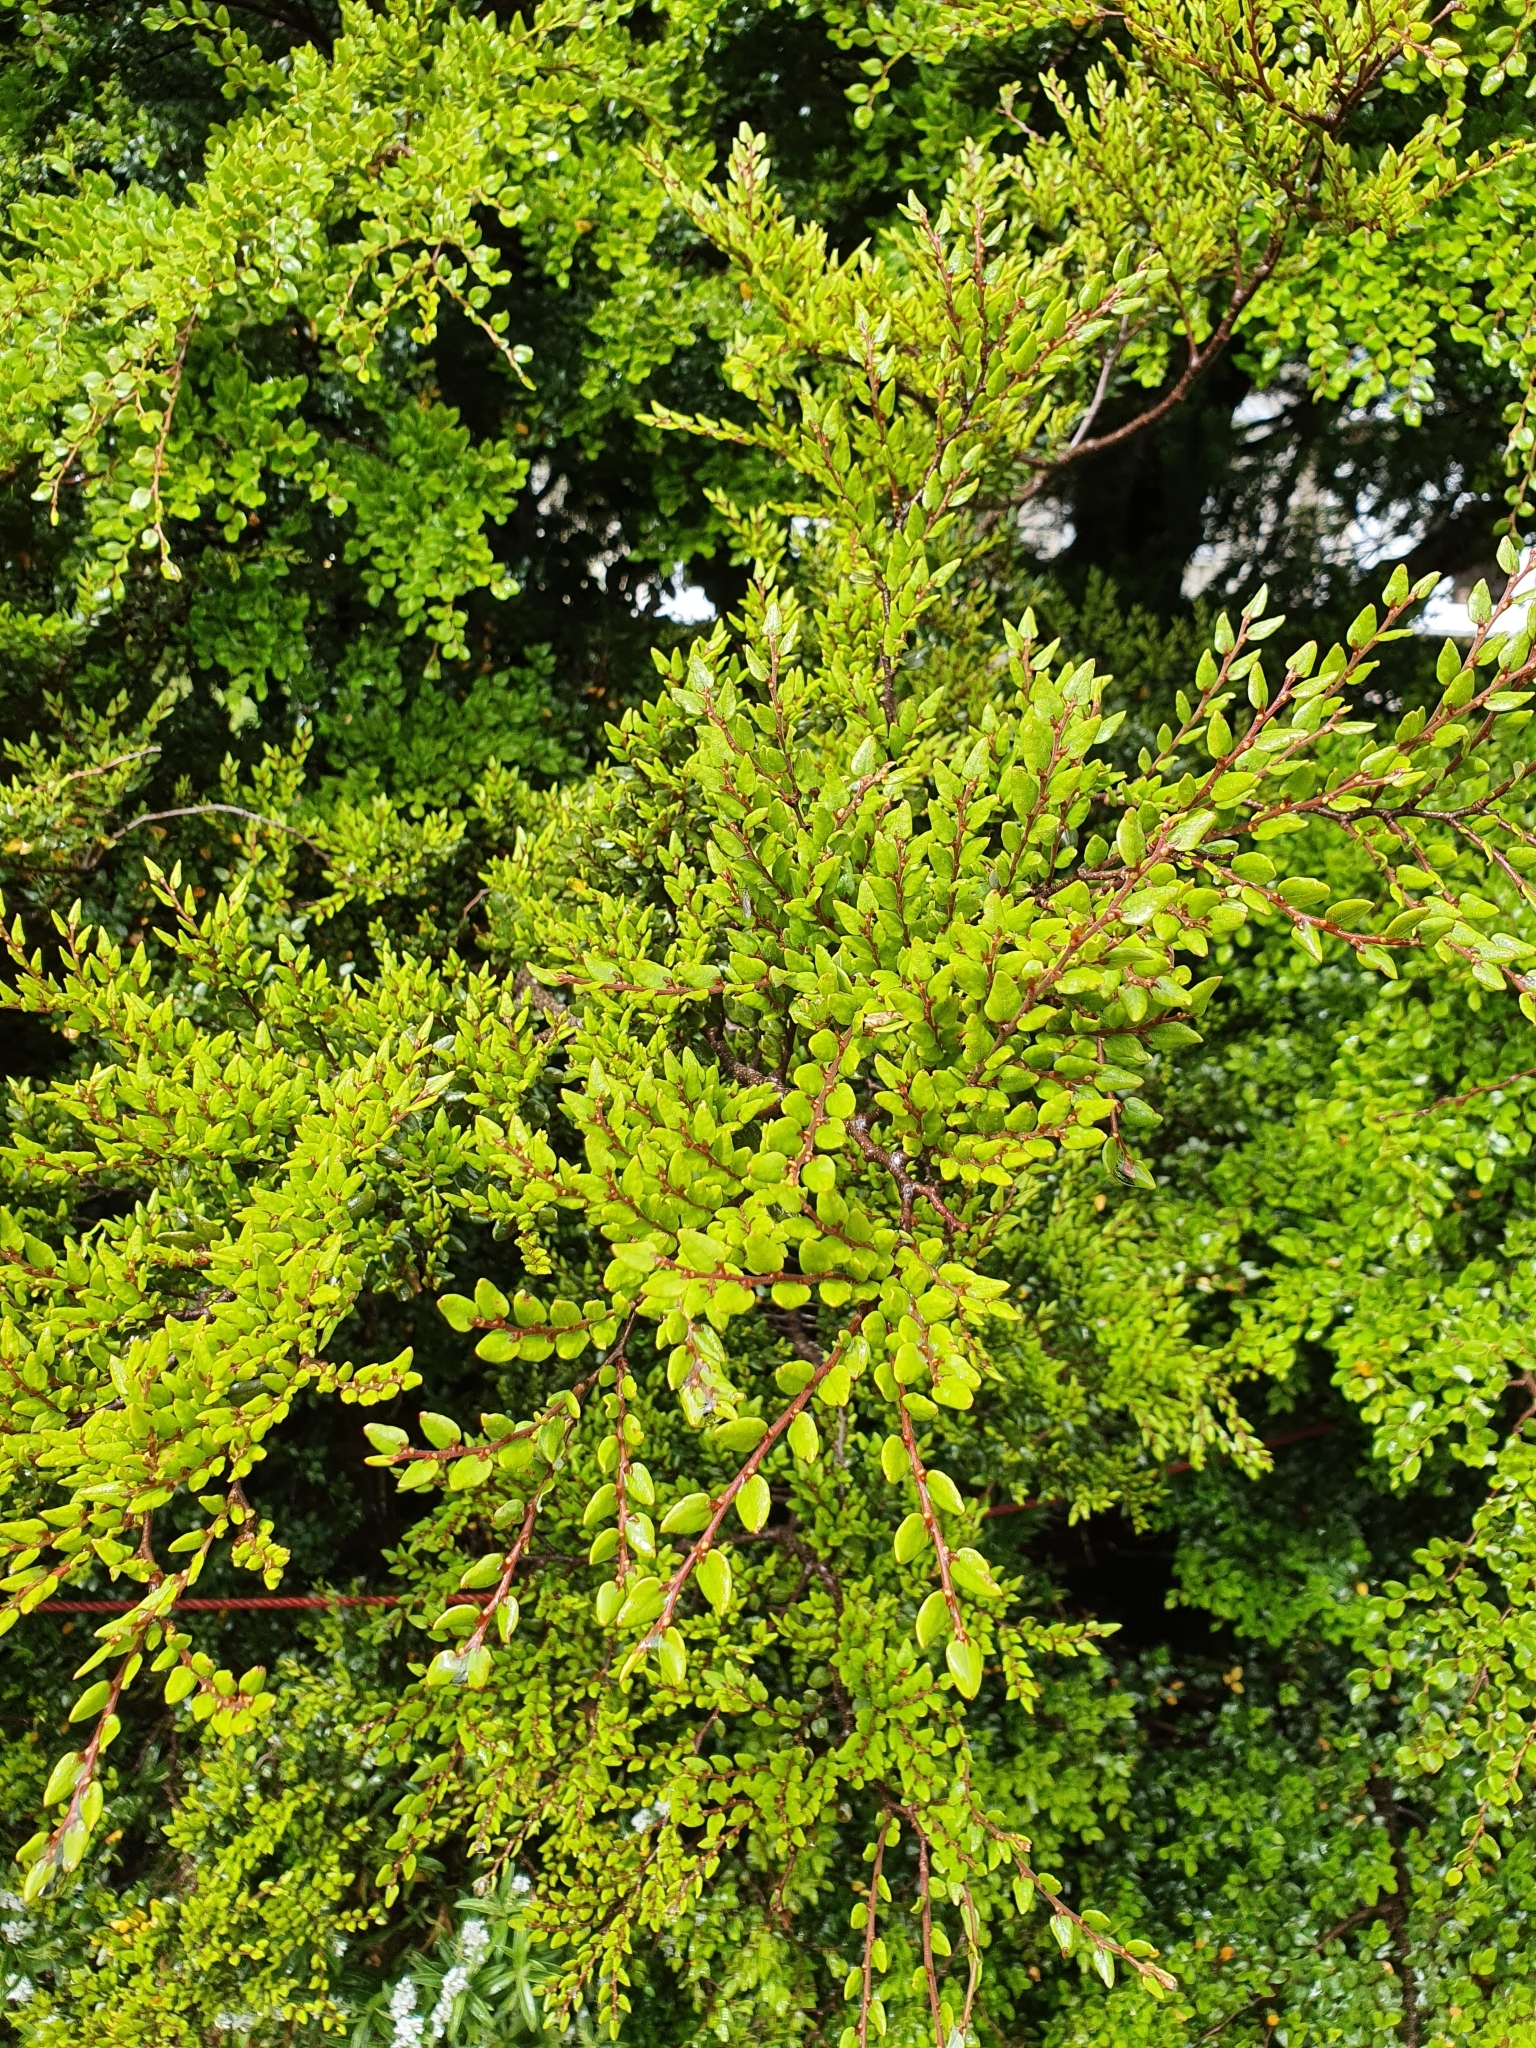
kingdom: Plantae
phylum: Tracheophyta
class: Magnoliopsida
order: Fagales
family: Nothofagaceae
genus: Nothofagus
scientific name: Nothofagus cliffortioides
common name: Mountain beech
